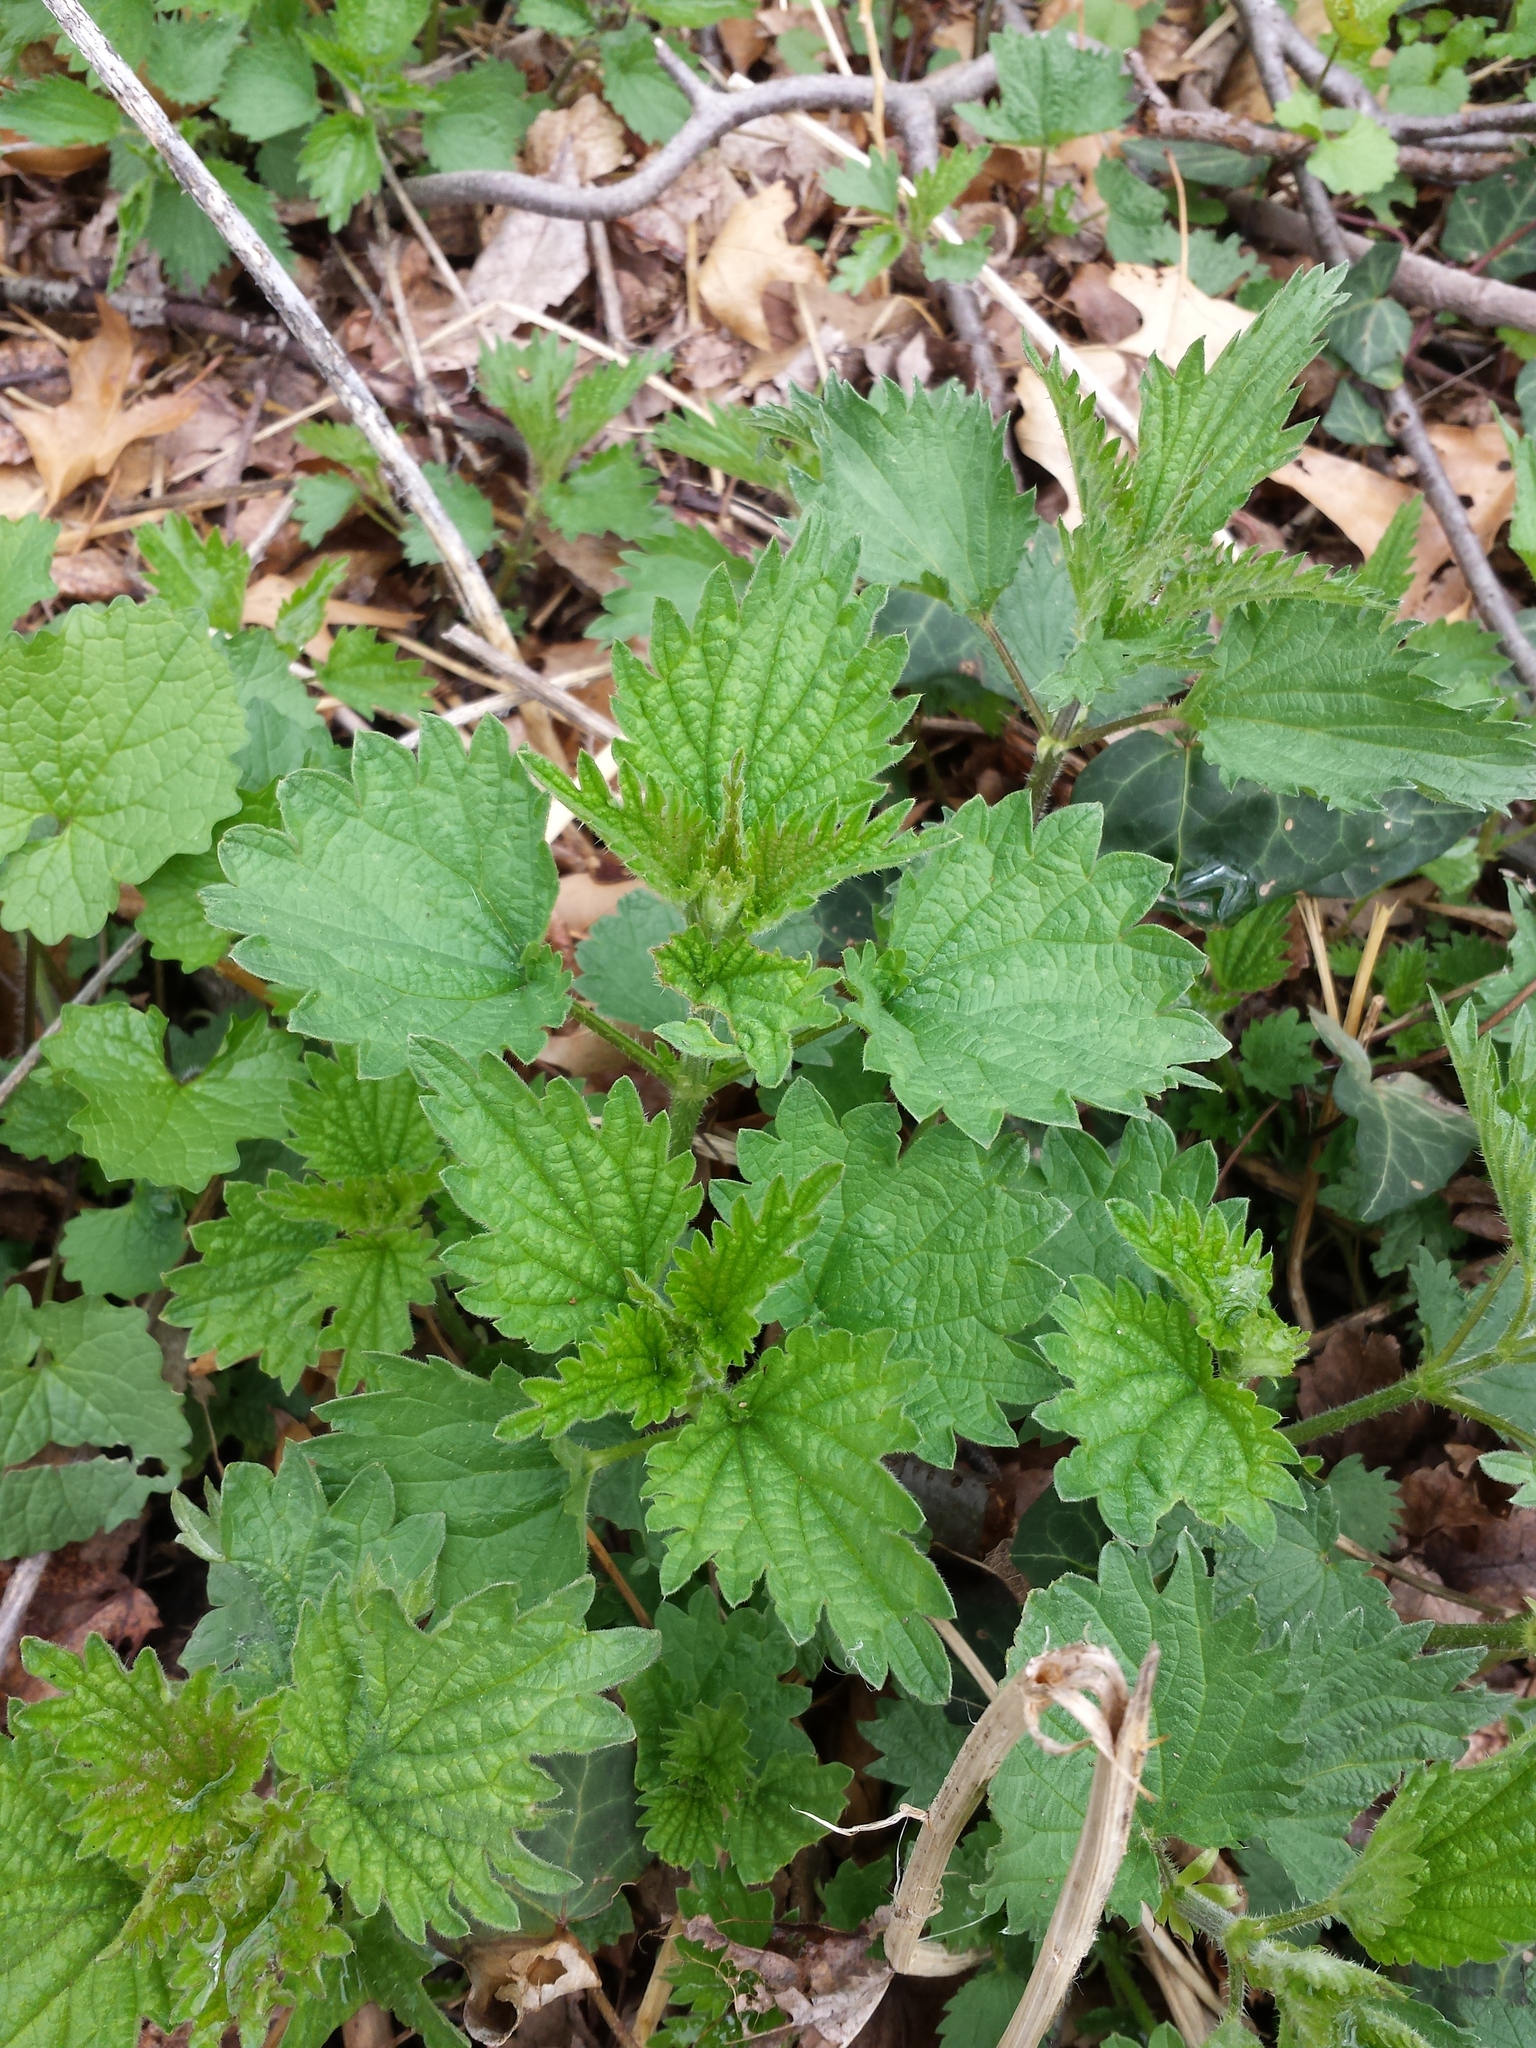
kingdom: Plantae
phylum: Tracheophyta
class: Magnoliopsida
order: Rosales
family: Urticaceae
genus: Urtica
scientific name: Urtica dioica
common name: Common nettle
